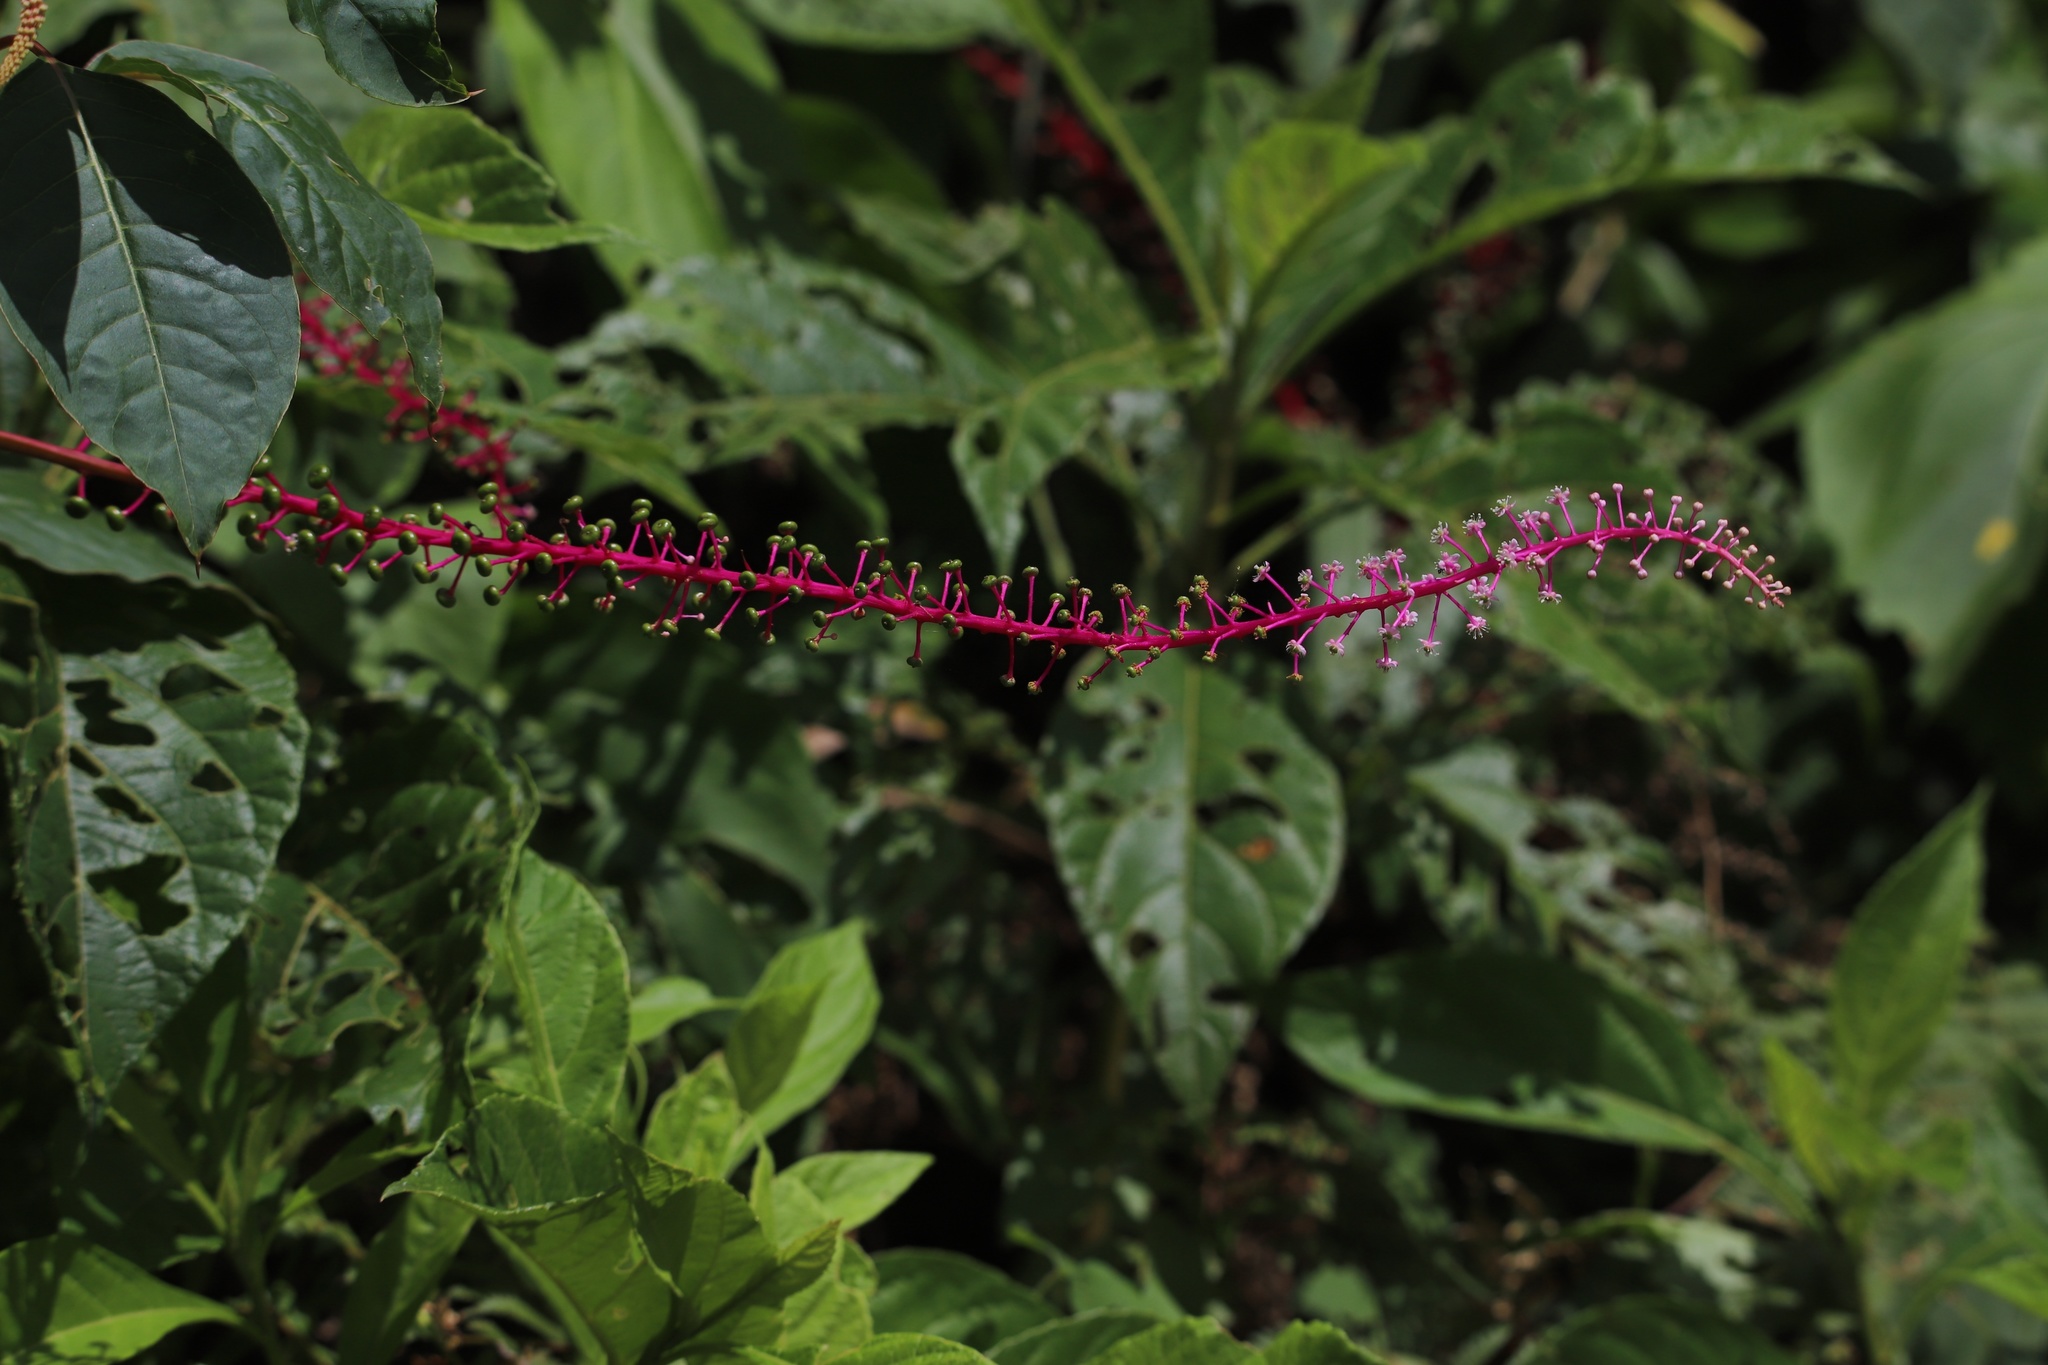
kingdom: Plantae
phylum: Tracheophyta
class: Magnoliopsida
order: Caryophyllales
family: Phytolaccaceae
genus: Phytolacca
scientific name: Phytolacca rivinoides
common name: Venezuelan pokeweed
